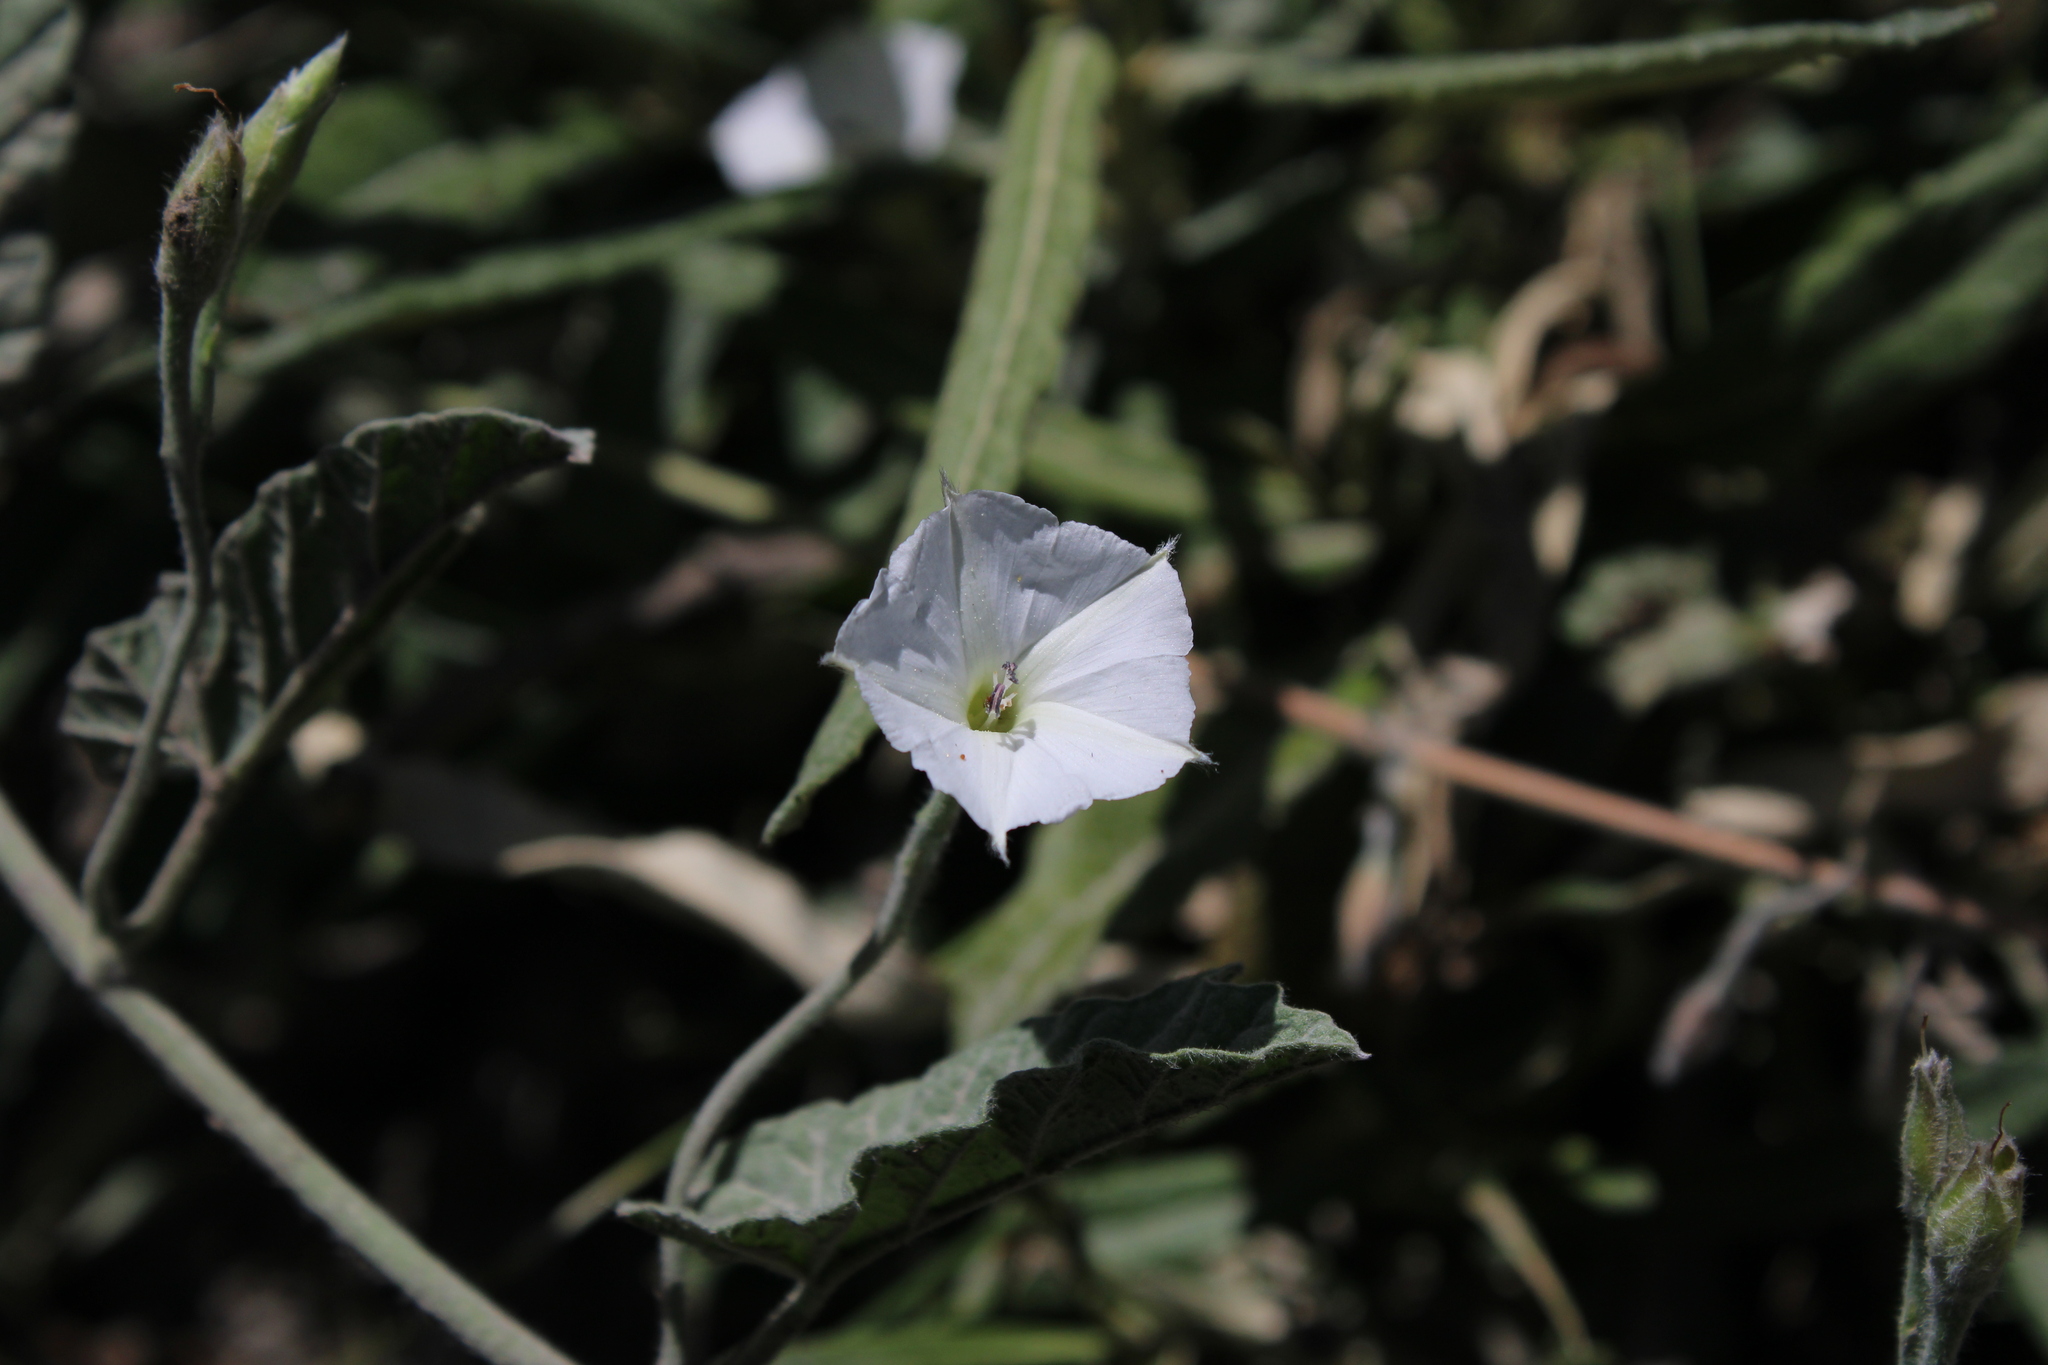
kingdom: Plantae
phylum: Tracheophyta
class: Magnoliopsida
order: Solanales
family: Convolvulaceae
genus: Convolvulus
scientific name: Convolvulus hermanniae
